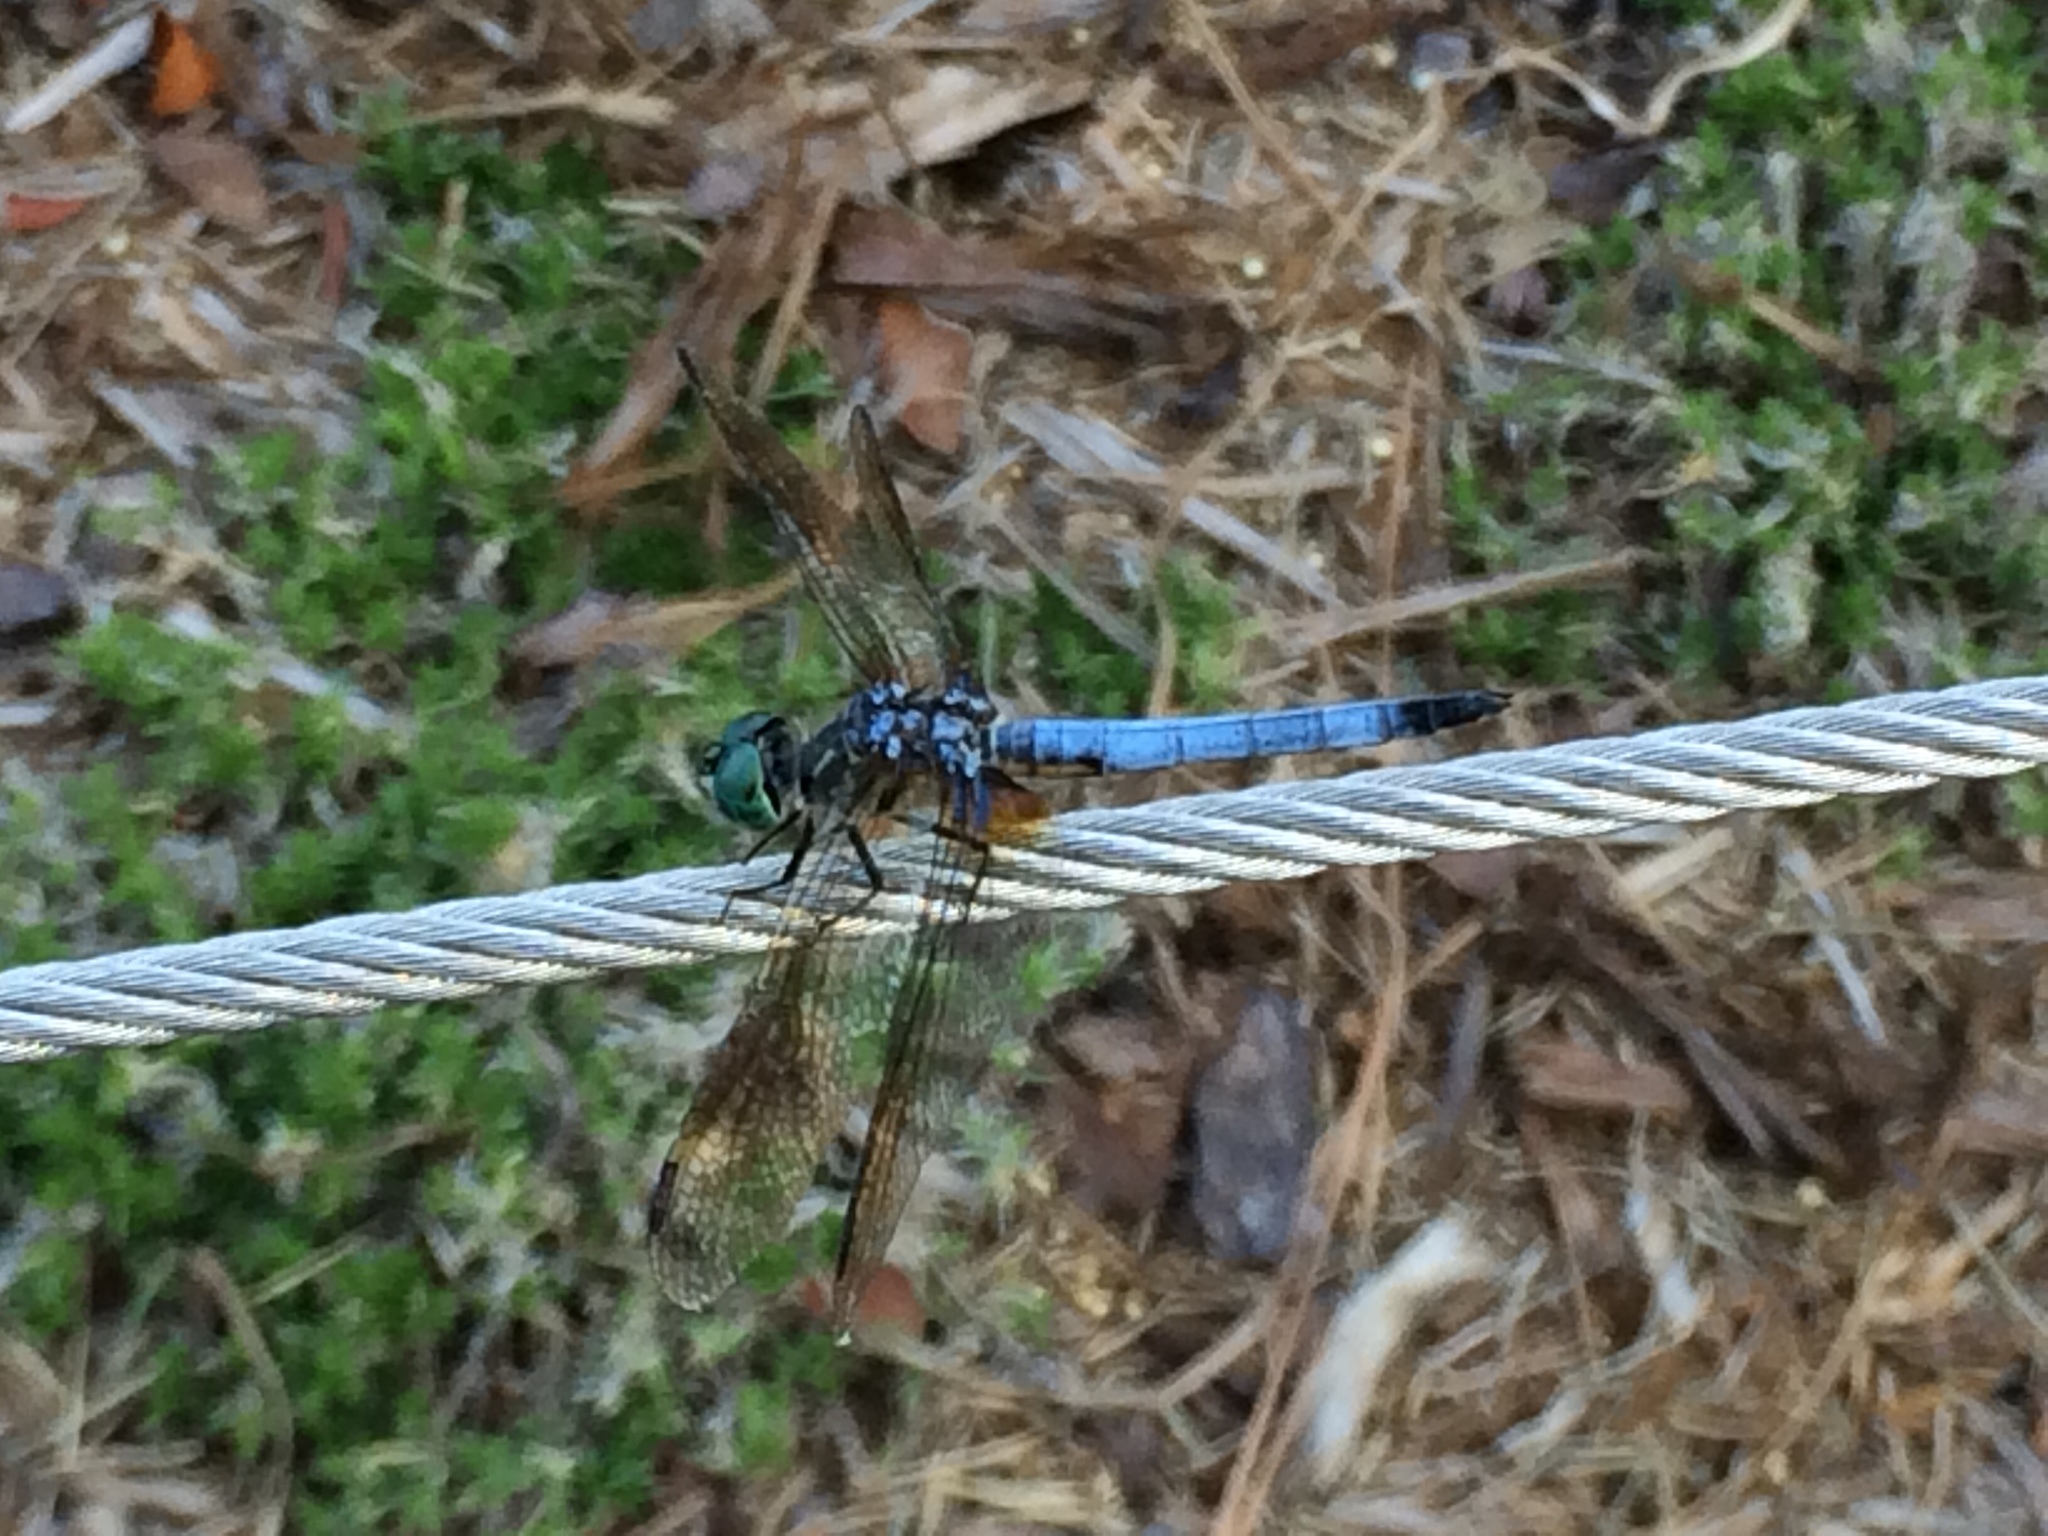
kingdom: Animalia
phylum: Arthropoda
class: Insecta
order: Odonata
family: Libellulidae
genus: Pachydiplax
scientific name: Pachydiplax longipennis
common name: Blue dasher
